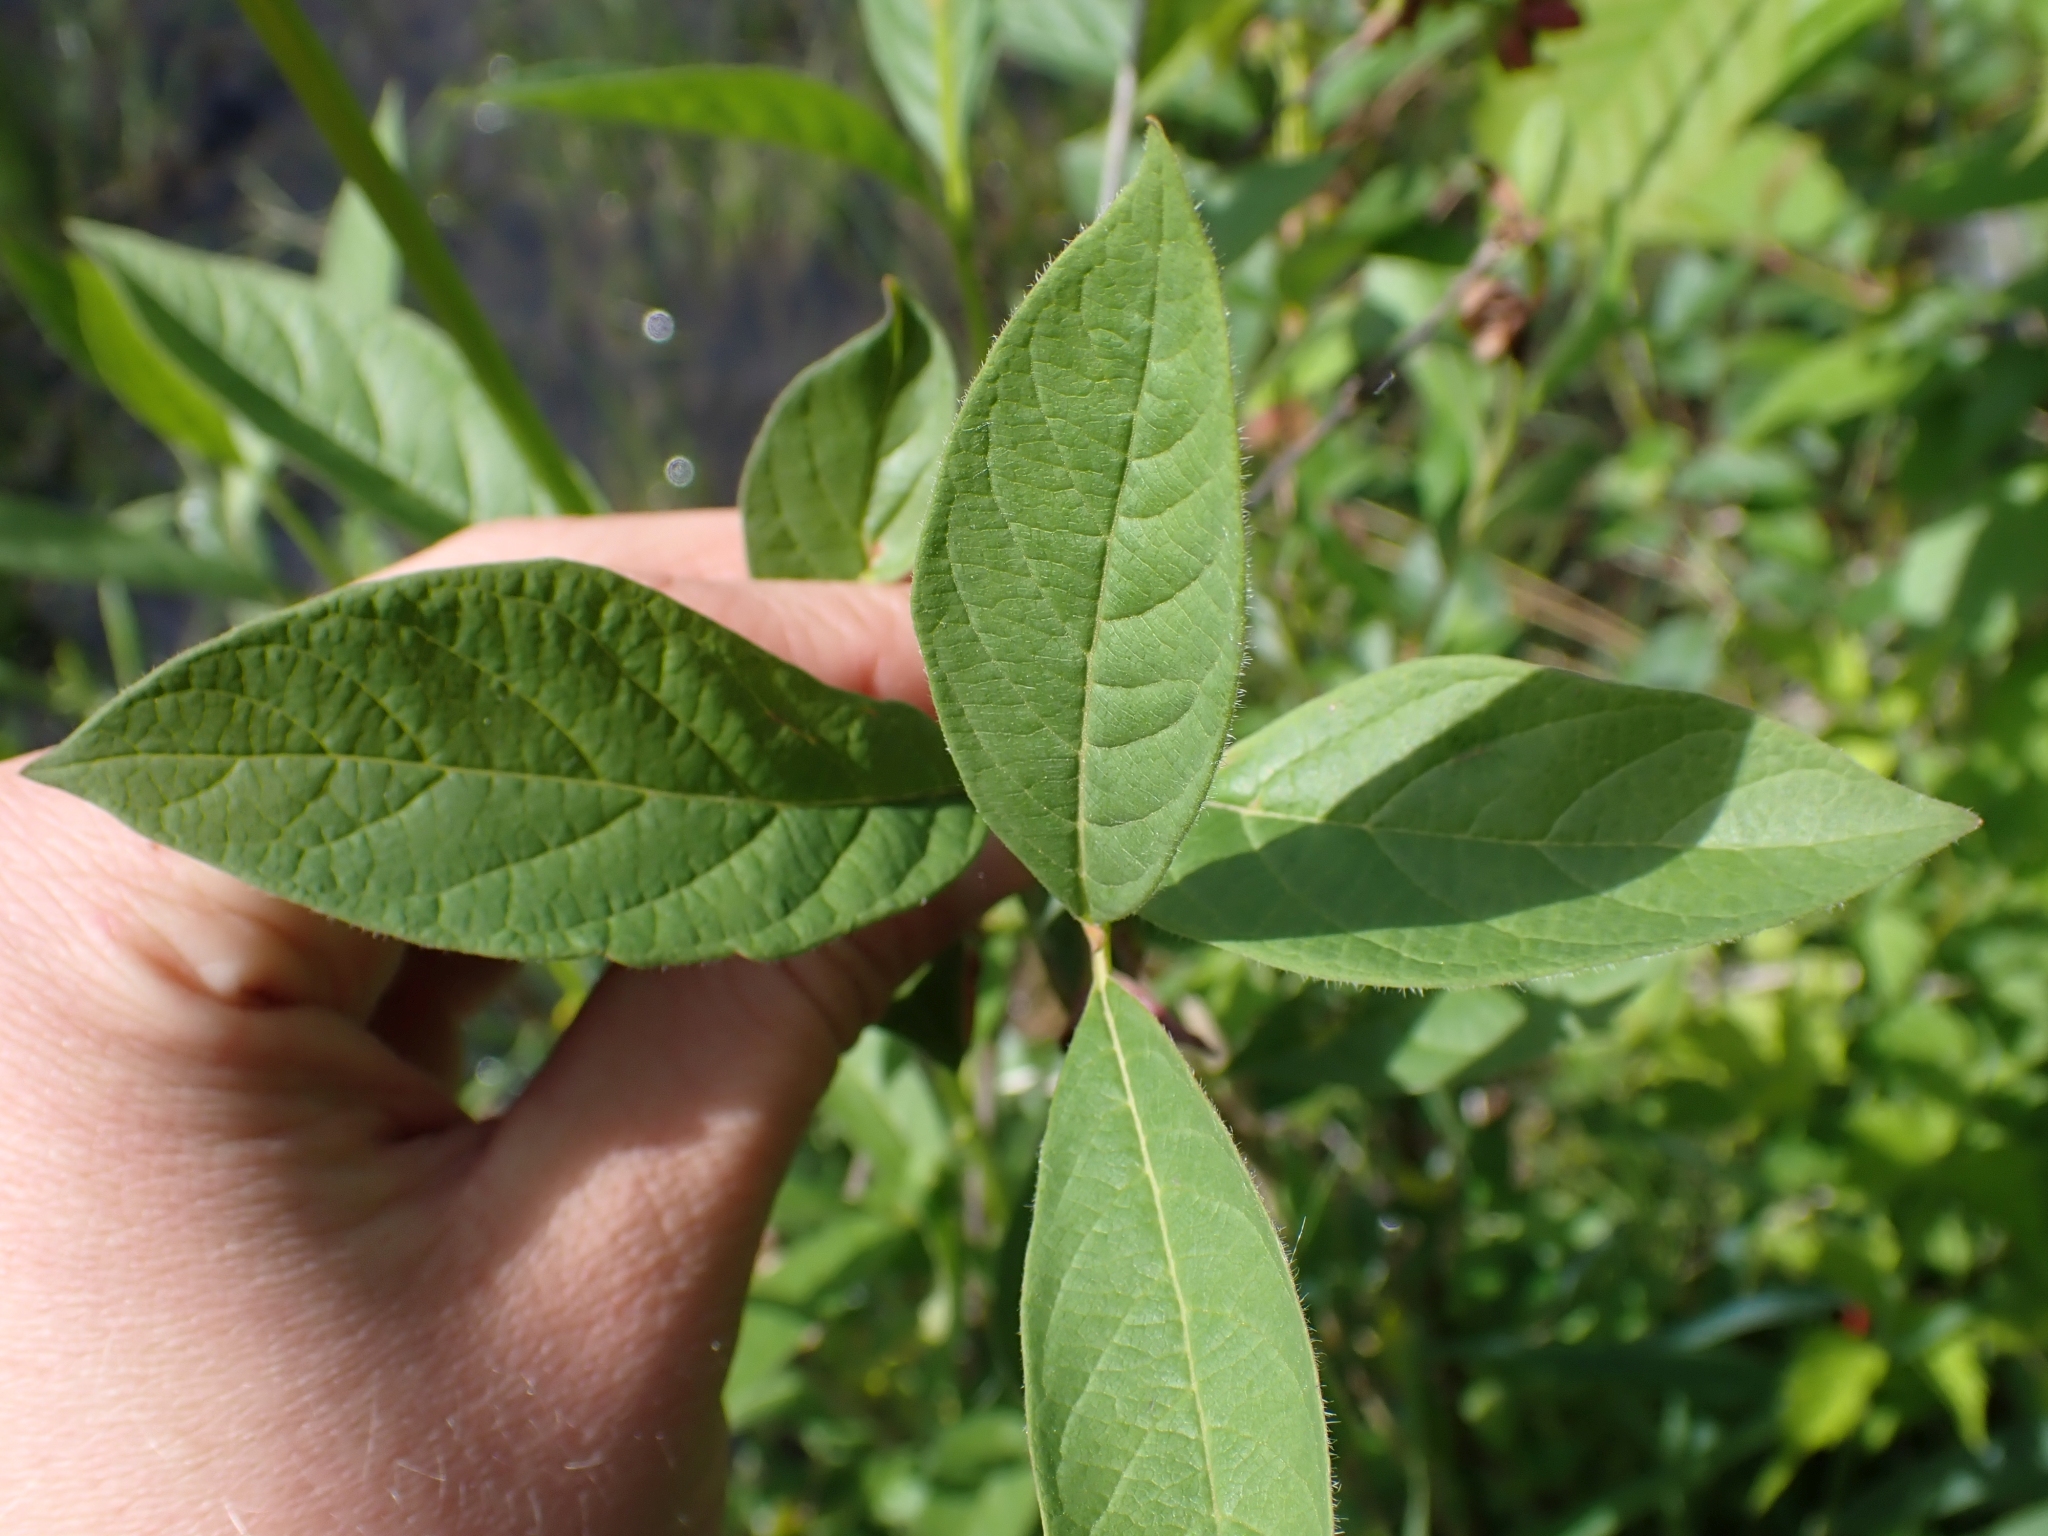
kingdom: Plantae
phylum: Tracheophyta
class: Magnoliopsida
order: Dipsacales
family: Caprifoliaceae
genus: Lonicera
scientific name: Lonicera involucrata
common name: Californian honeysuckle
